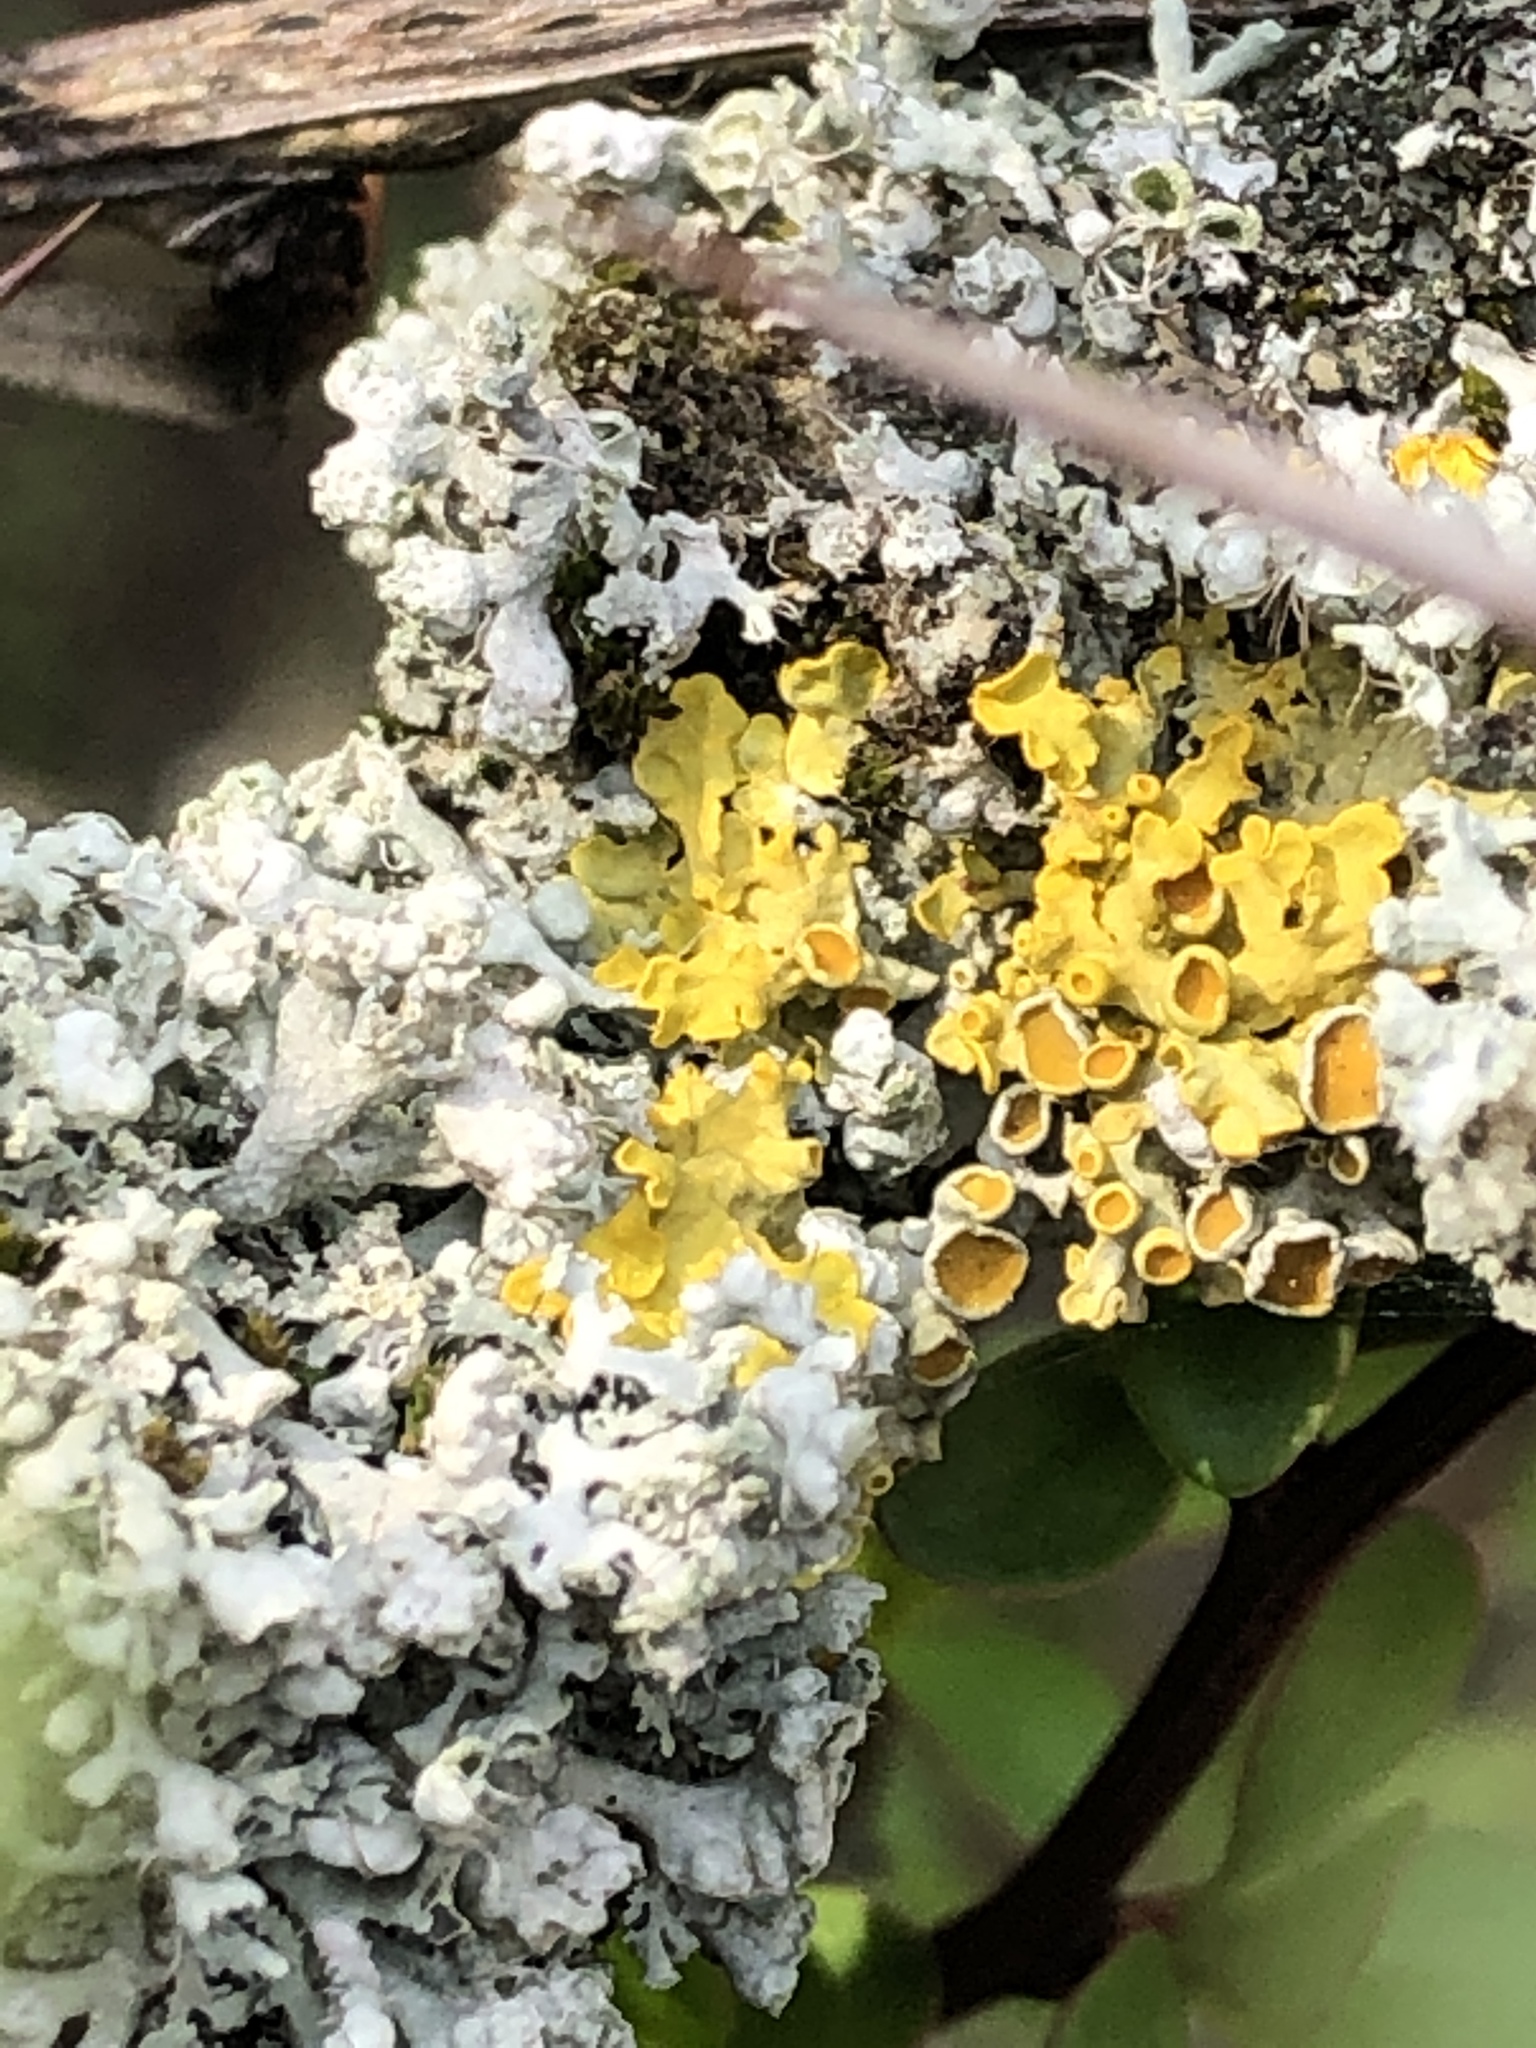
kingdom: Fungi
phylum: Ascomycota
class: Lecanoromycetes
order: Caliciales
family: Physciaceae
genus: Physcia
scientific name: Physcia adscendens
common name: Hooded rosette lichen
